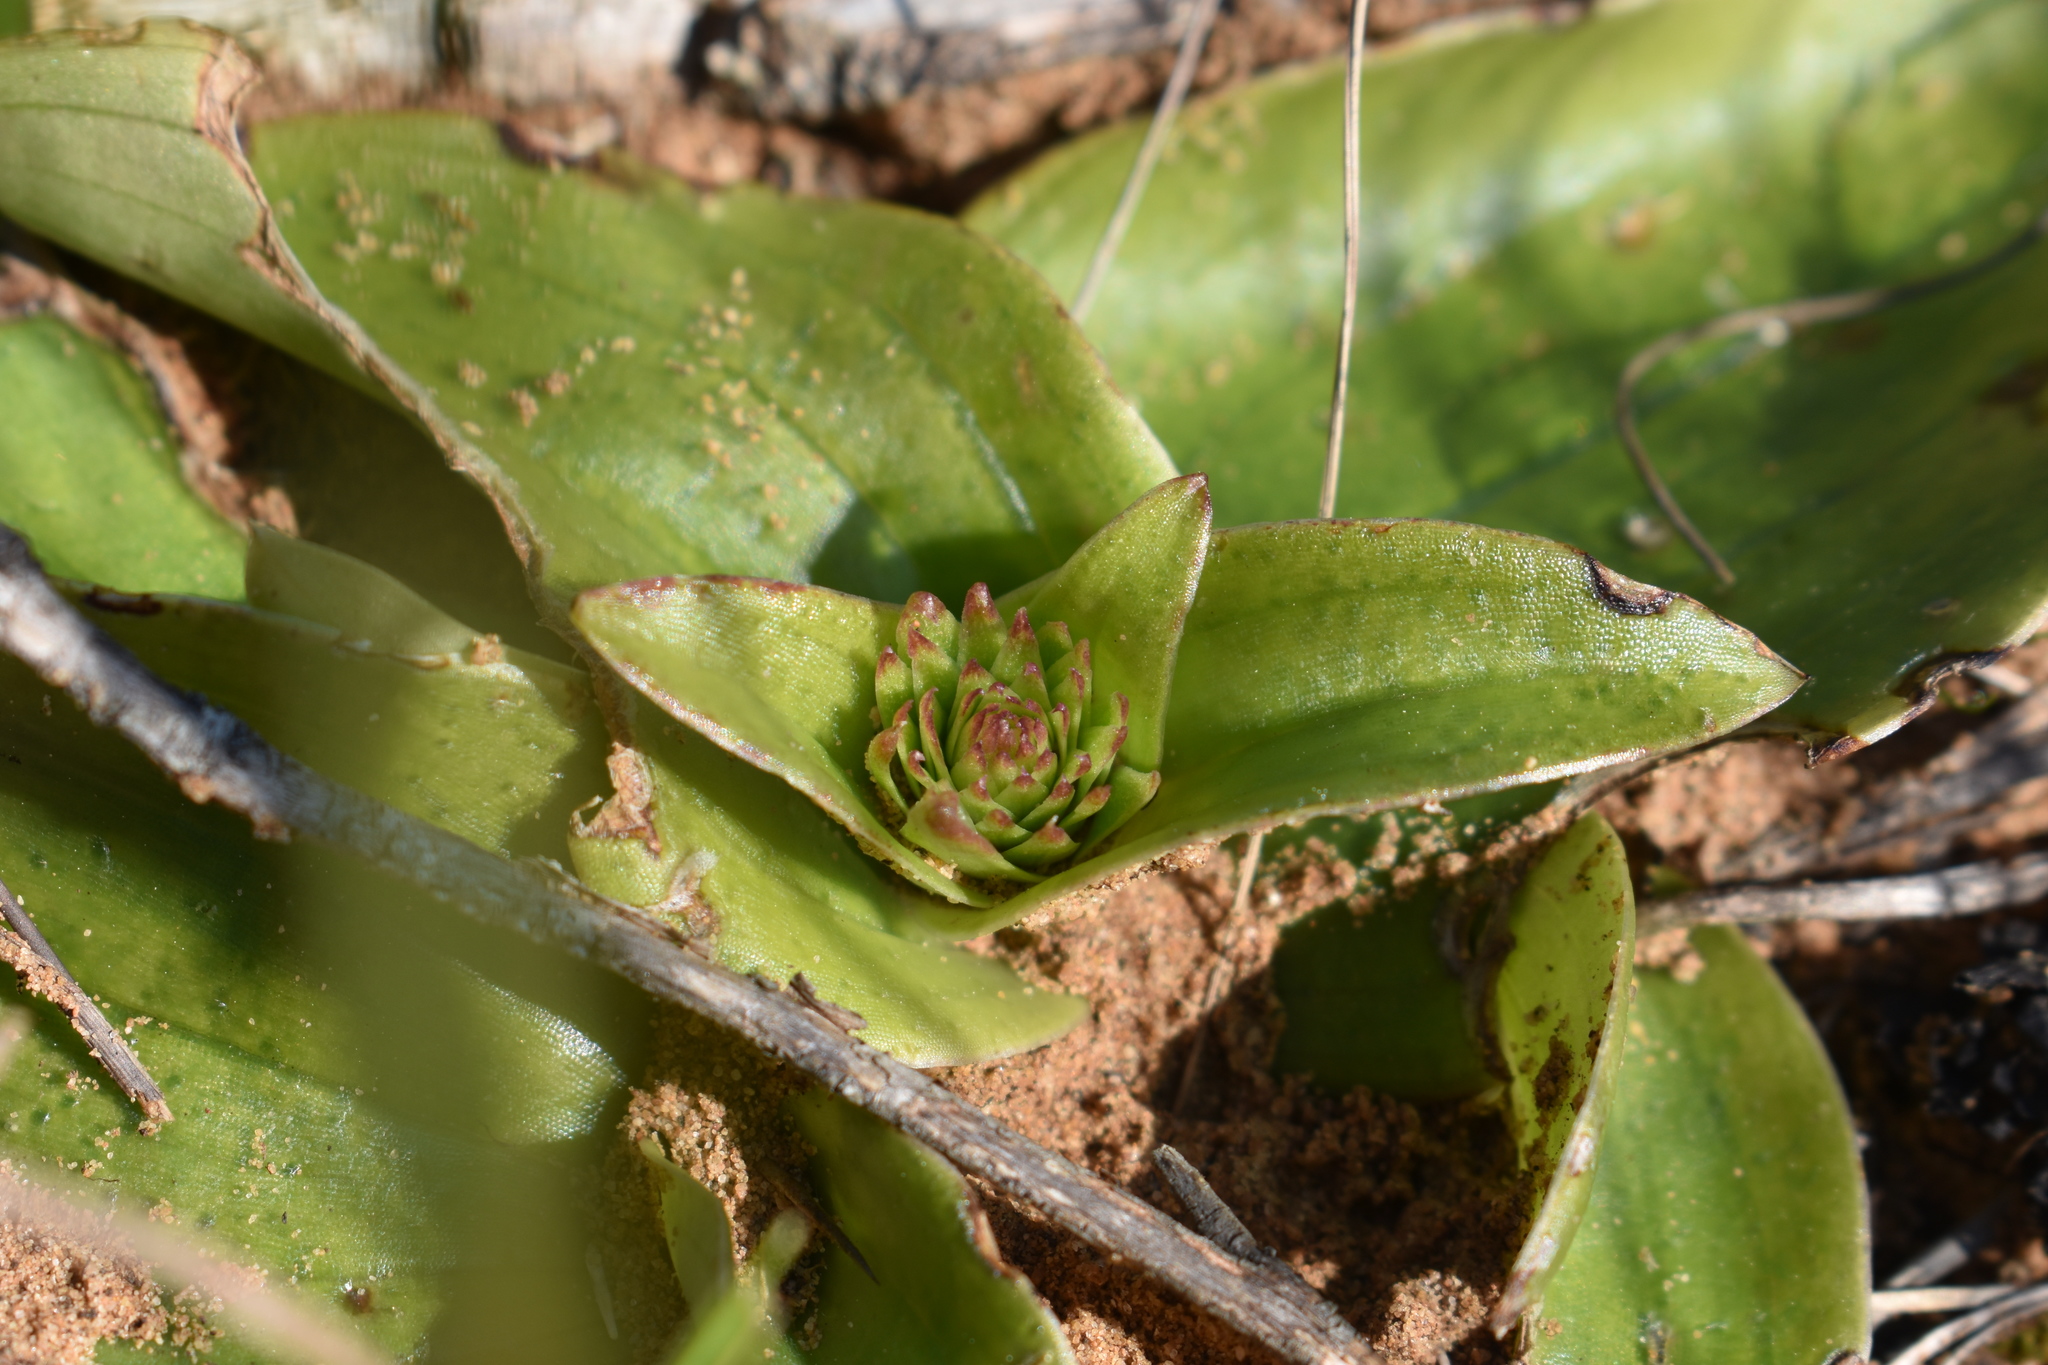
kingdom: Plantae
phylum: Tracheophyta
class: Liliopsida
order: Asparagales
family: Orchidaceae
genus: Satyrium
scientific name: Satyrium muticum
